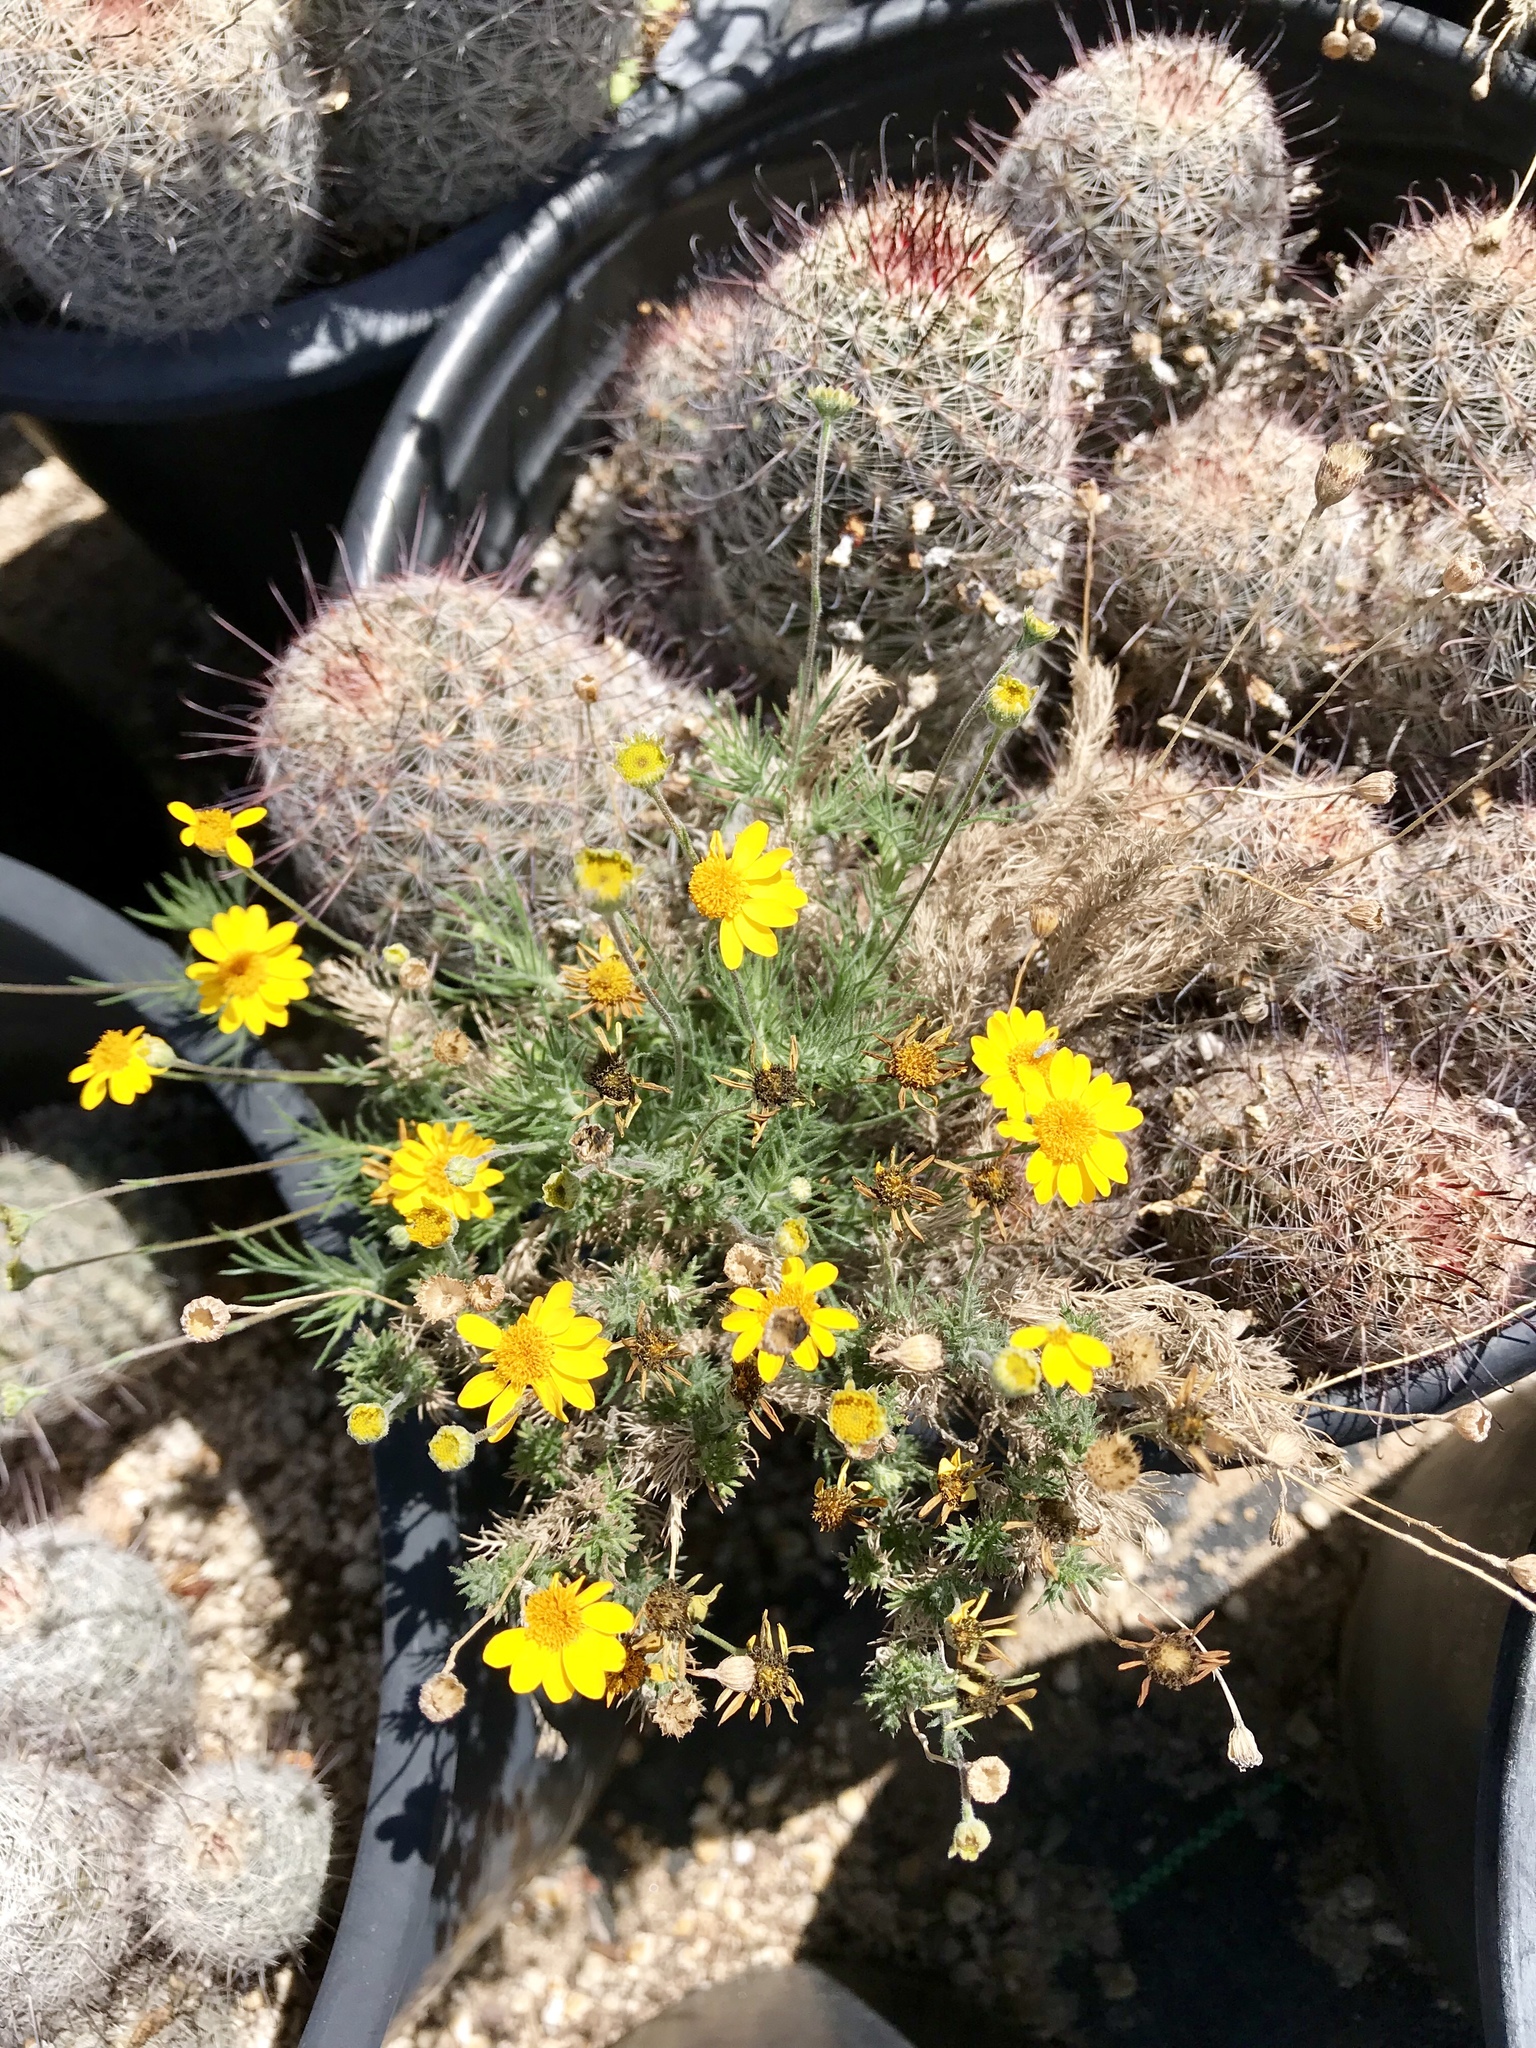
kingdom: Plantae
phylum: Tracheophyta
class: Magnoliopsida
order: Asterales
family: Asteraceae
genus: Thymophylla
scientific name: Thymophylla pentachaeta
